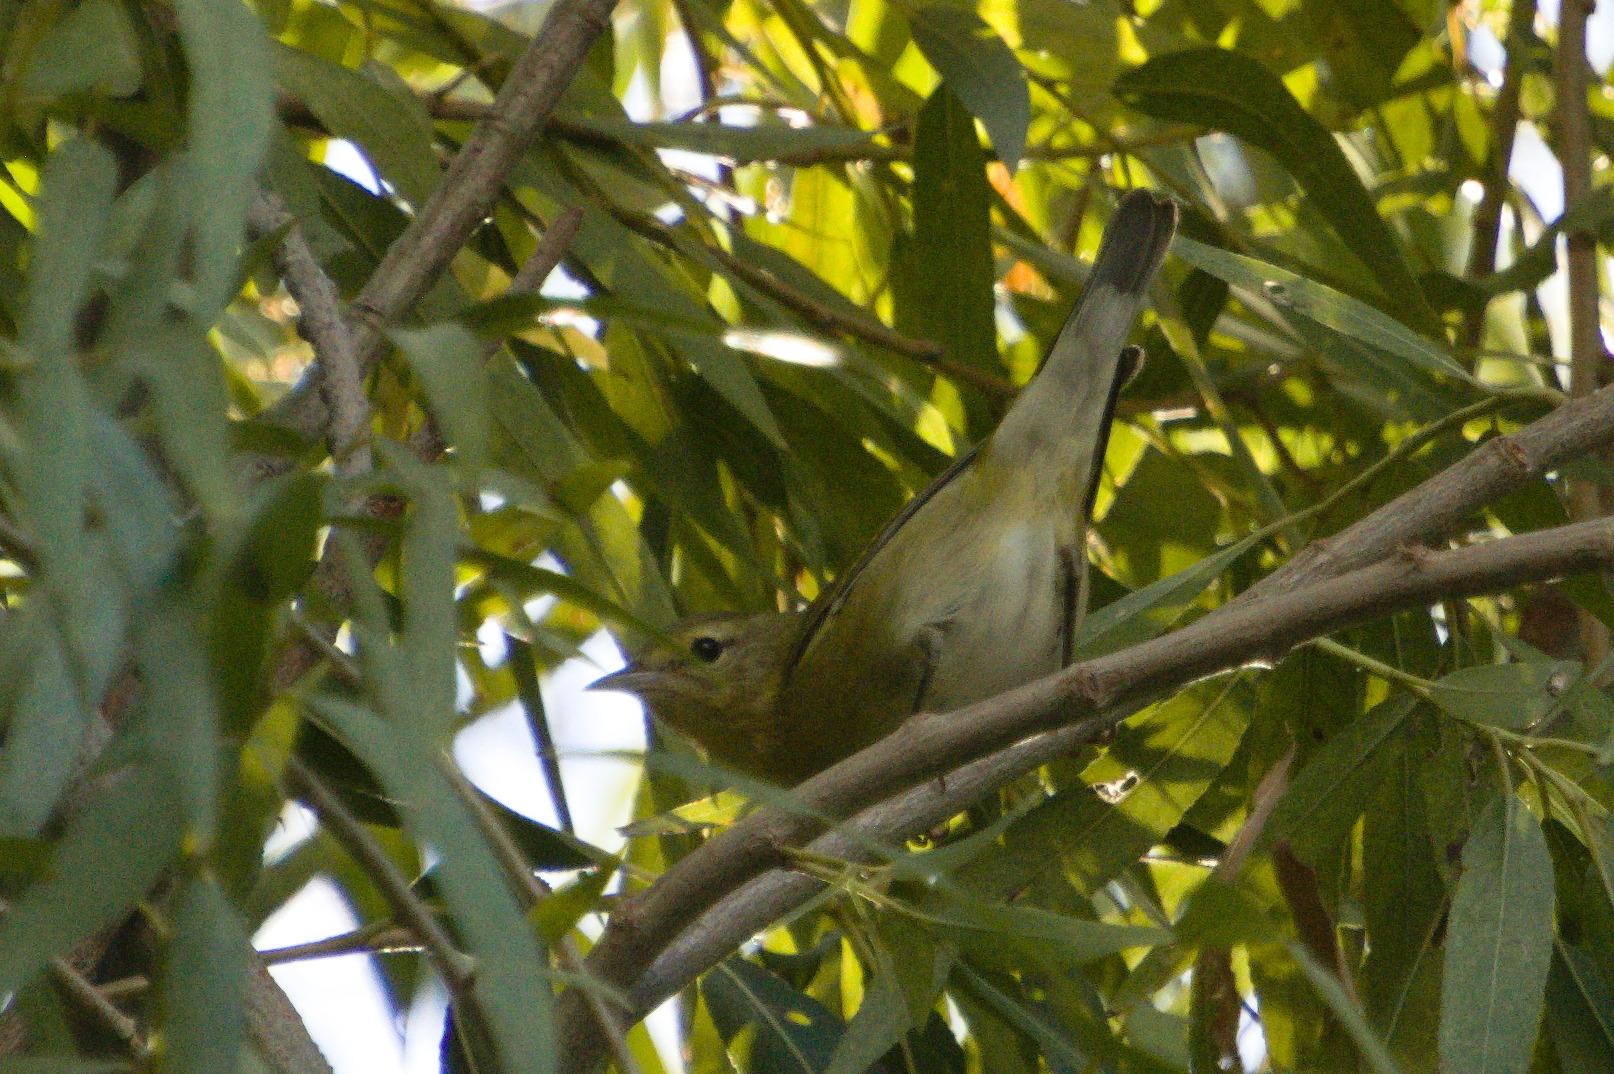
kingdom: Animalia
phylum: Chordata
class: Aves
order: Passeriformes
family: Parulidae
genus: Leiothlypis
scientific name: Leiothlypis peregrina
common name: Tennessee warbler
